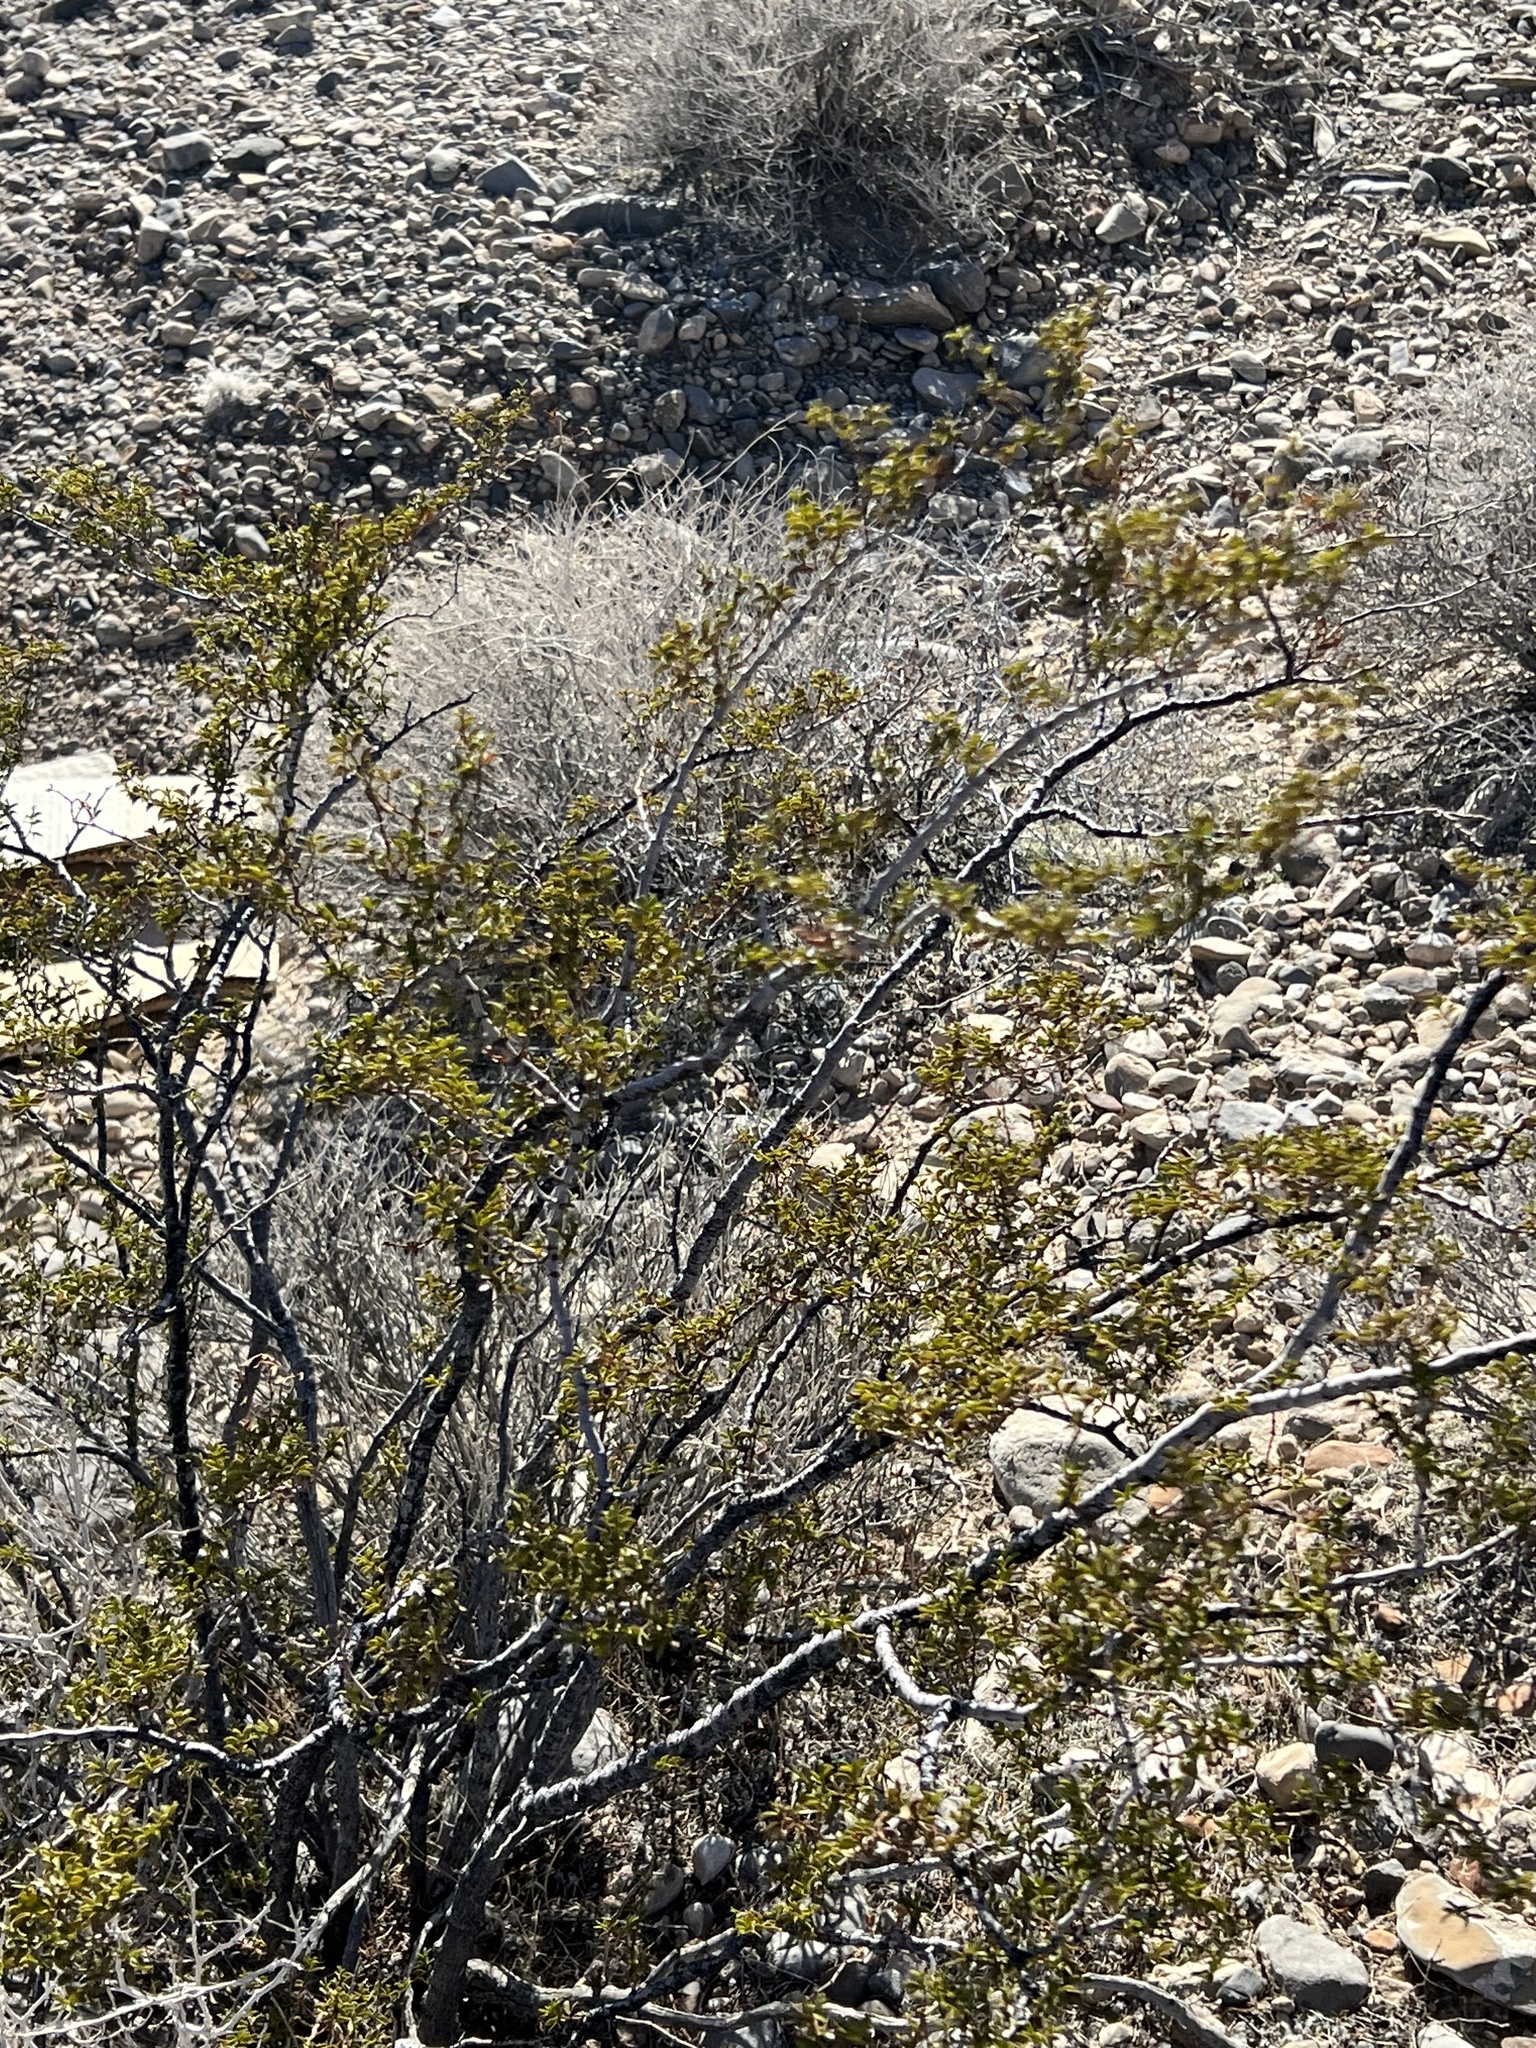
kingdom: Plantae
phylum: Tracheophyta
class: Magnoliopsida
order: Zygophyllales
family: Zygophyllaceae
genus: Larrea
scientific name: Larrea tridentata
